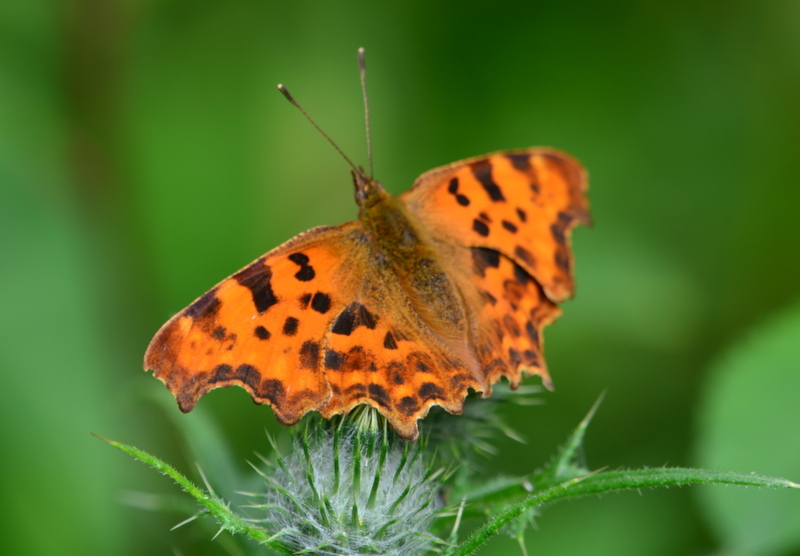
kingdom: Animalia
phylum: Arthropoda
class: Insecta
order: Lepidoptera
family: Nymphalidae
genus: Polygonia
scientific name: Polygonia c-album
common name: Comma
